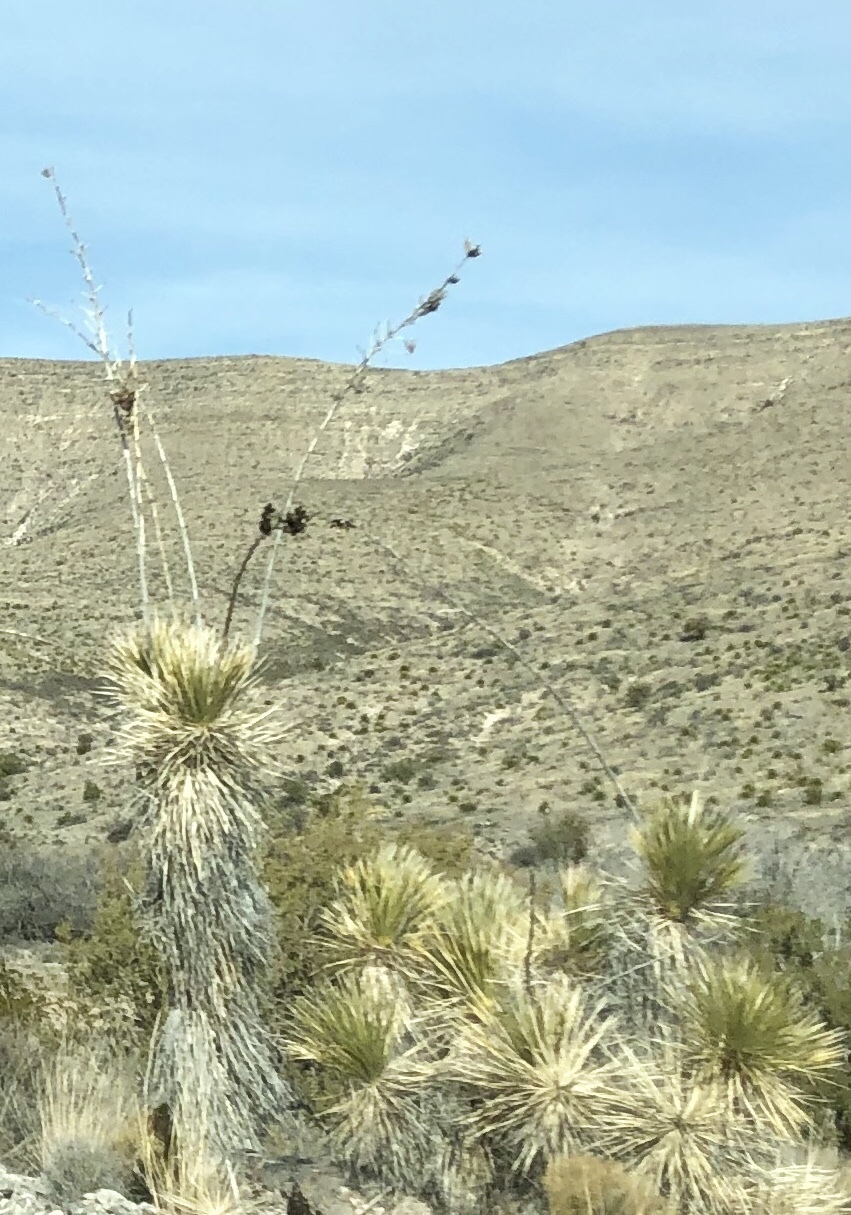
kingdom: Plantae
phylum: Tracheophyta
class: Liliopsida
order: Asparagales
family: Asparagaceae
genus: Yucca
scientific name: Yucca elata
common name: Palmella
